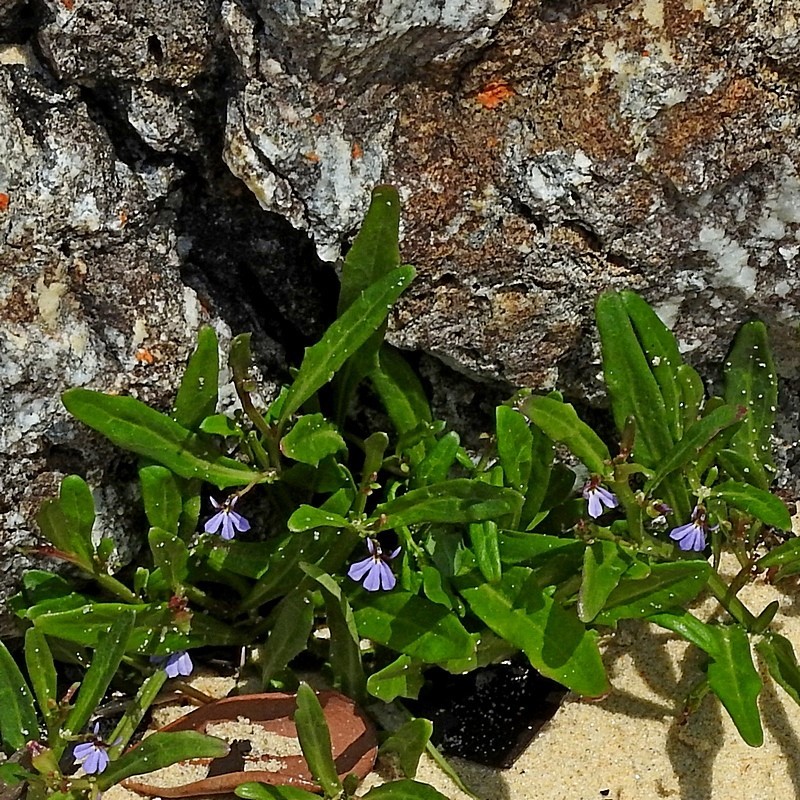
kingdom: Plantae
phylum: Tracheophyta
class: Magnoliopsida
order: Asterales
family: Campanulaceae
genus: Lobelia
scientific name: Lobelia anceps
